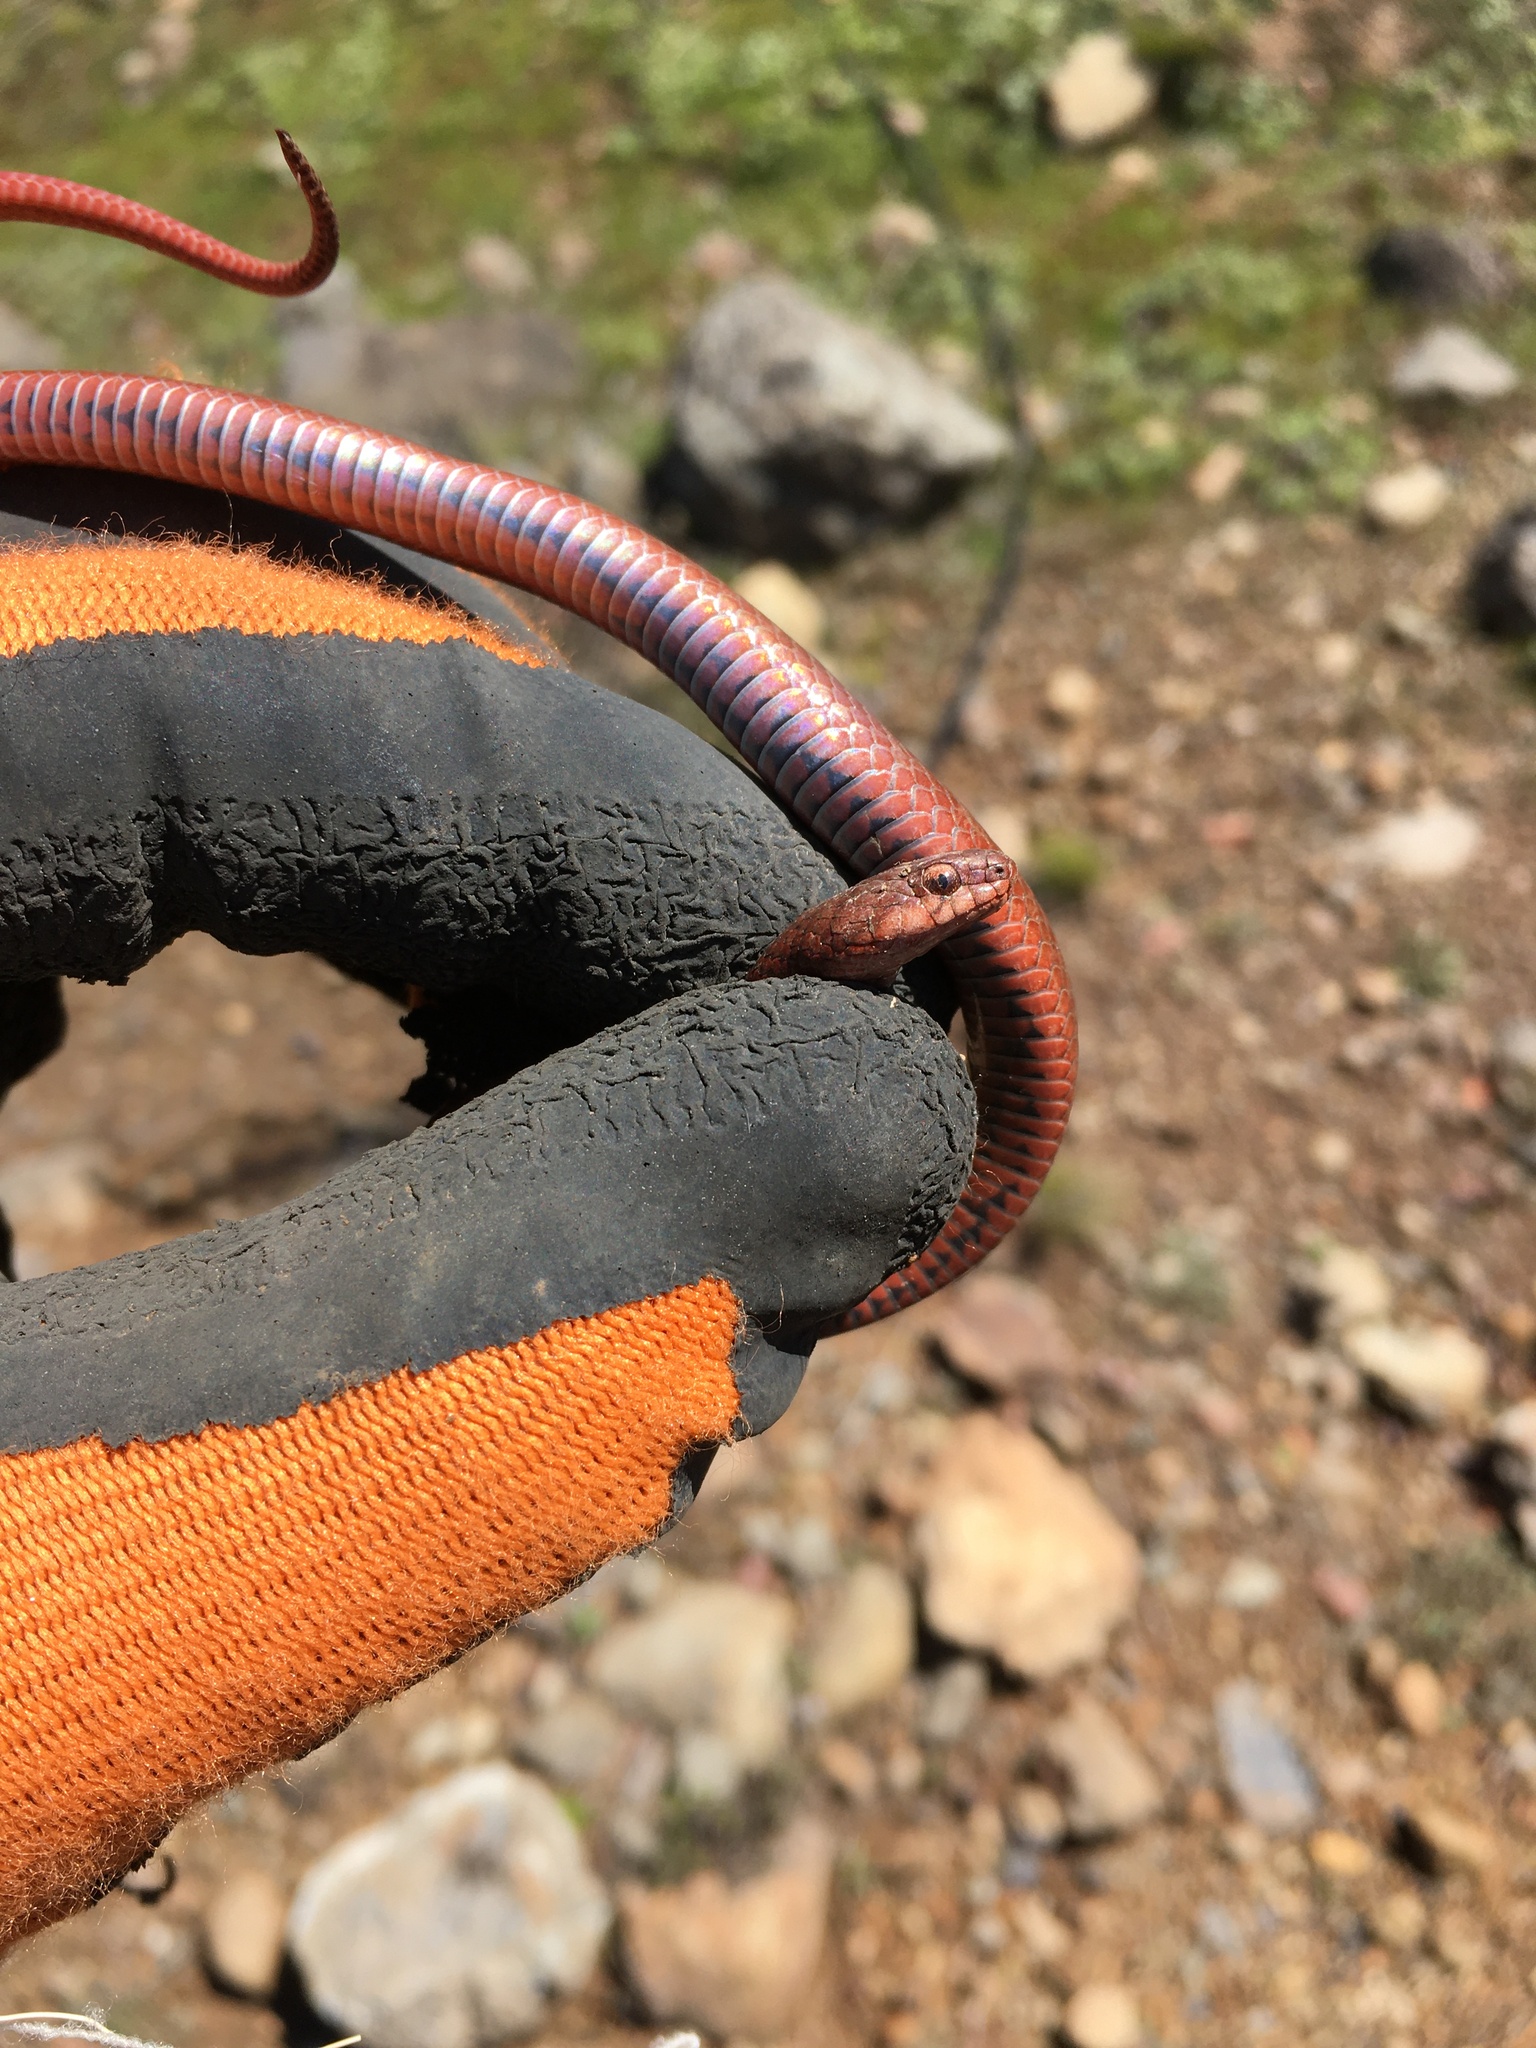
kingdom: Animalia
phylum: Chordata
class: Squamata
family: Colubridae
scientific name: Colubridae
